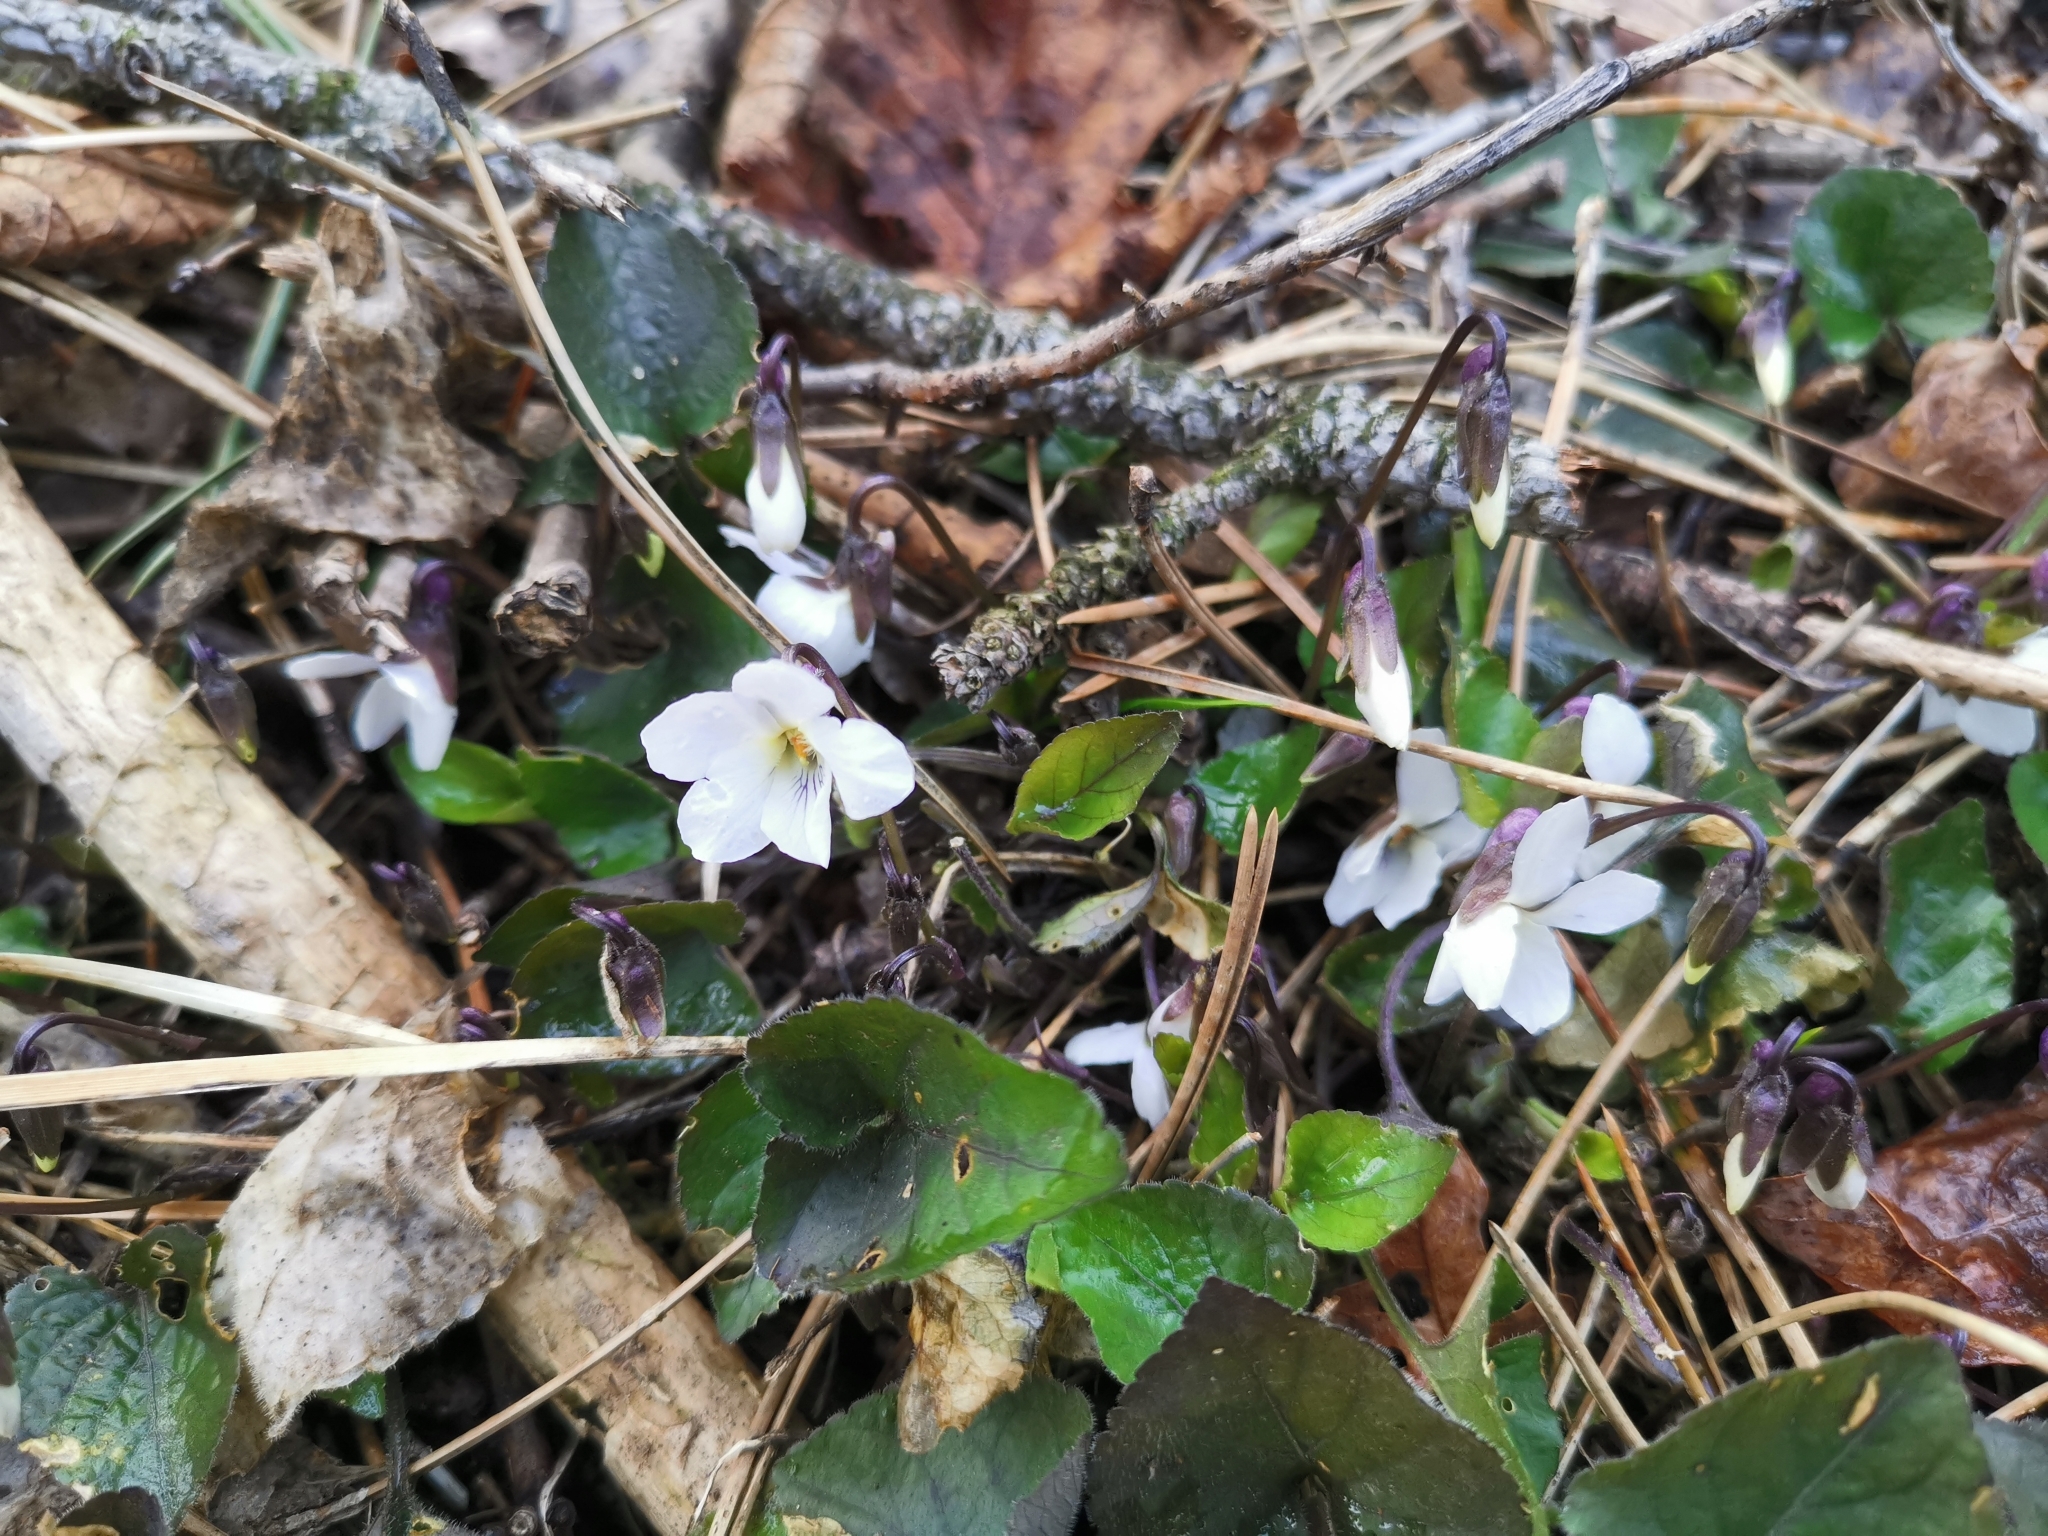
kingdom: Plantae
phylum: Tracheophyta
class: Magnoliopsida
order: Malpighiales
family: Violaceae
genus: Viola
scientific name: Viola alba
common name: White violet
